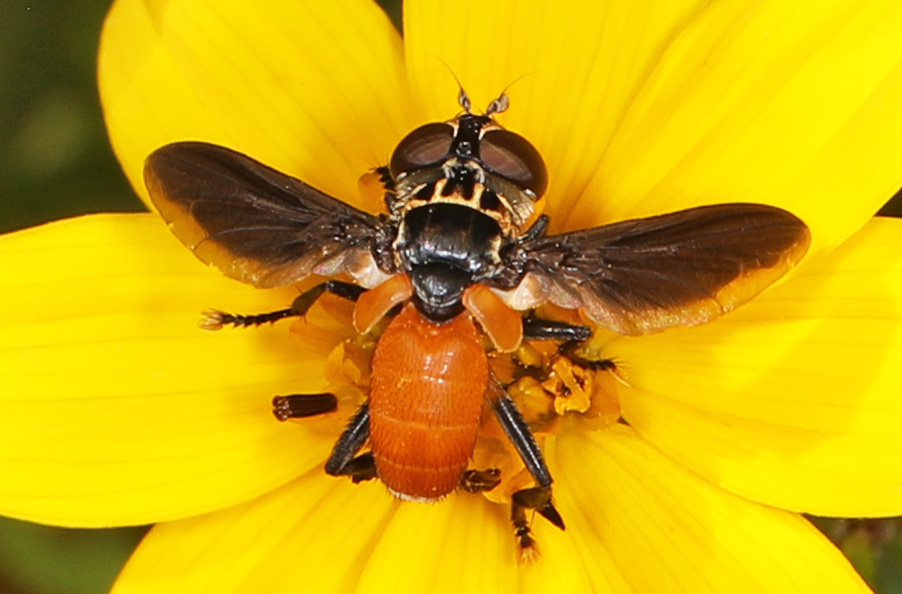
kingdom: Animalia
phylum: Arthropoda
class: Insecta
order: Diptera
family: Tachinidae
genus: Trichopoda
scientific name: Trichopoda pennipes
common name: Tachinid fly
